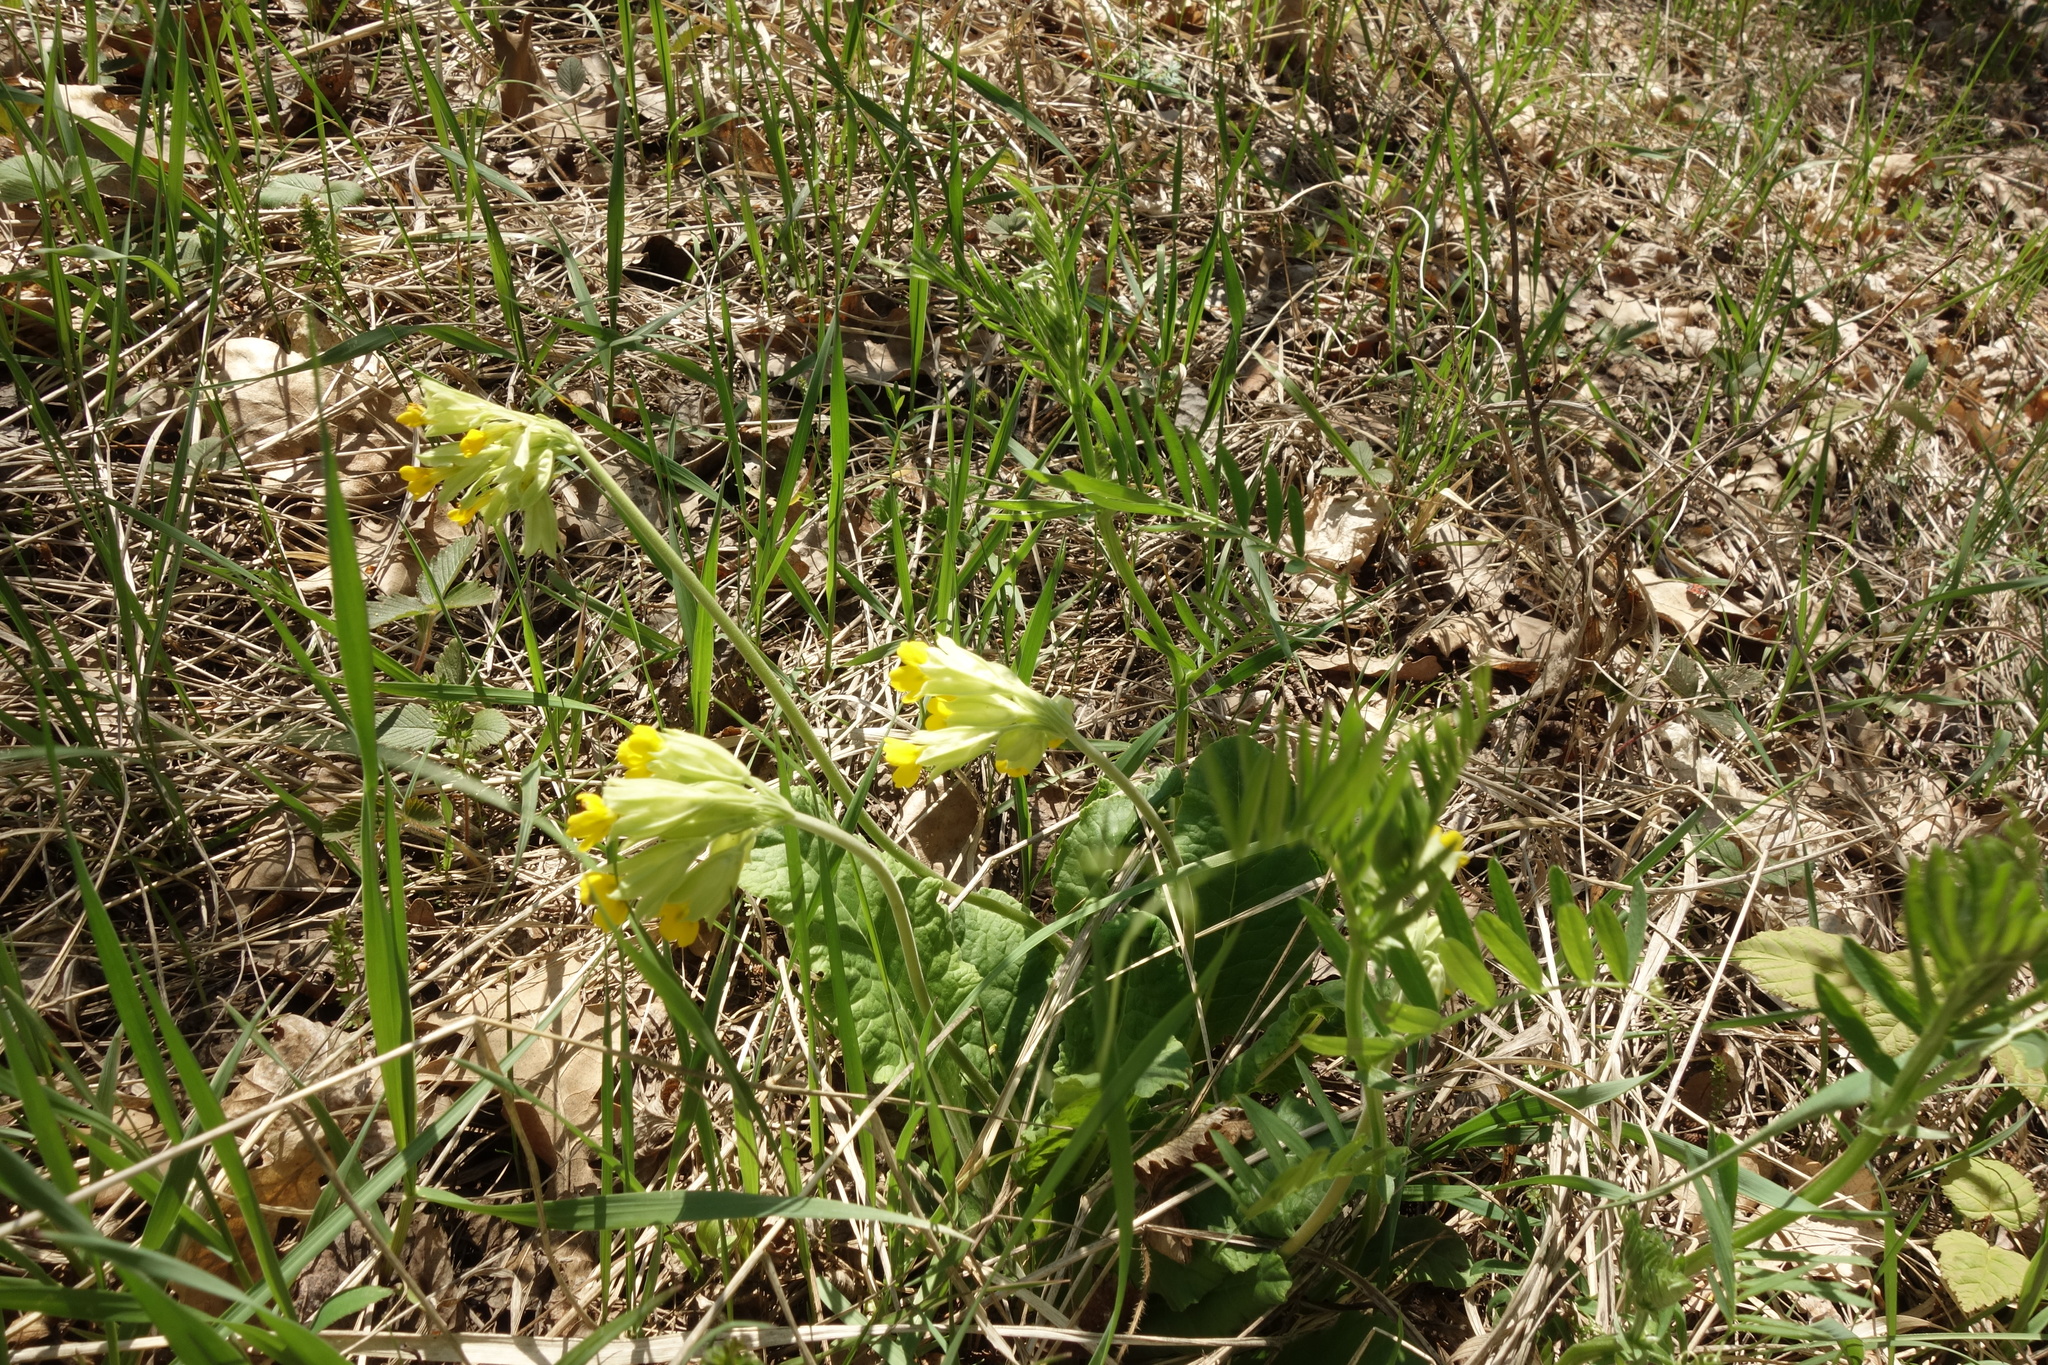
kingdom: Plantae
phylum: Tracheophyta
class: Magnoliopsida
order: Ericales
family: Primulaceae
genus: Primula
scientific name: Primula veris
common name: Cowslip
